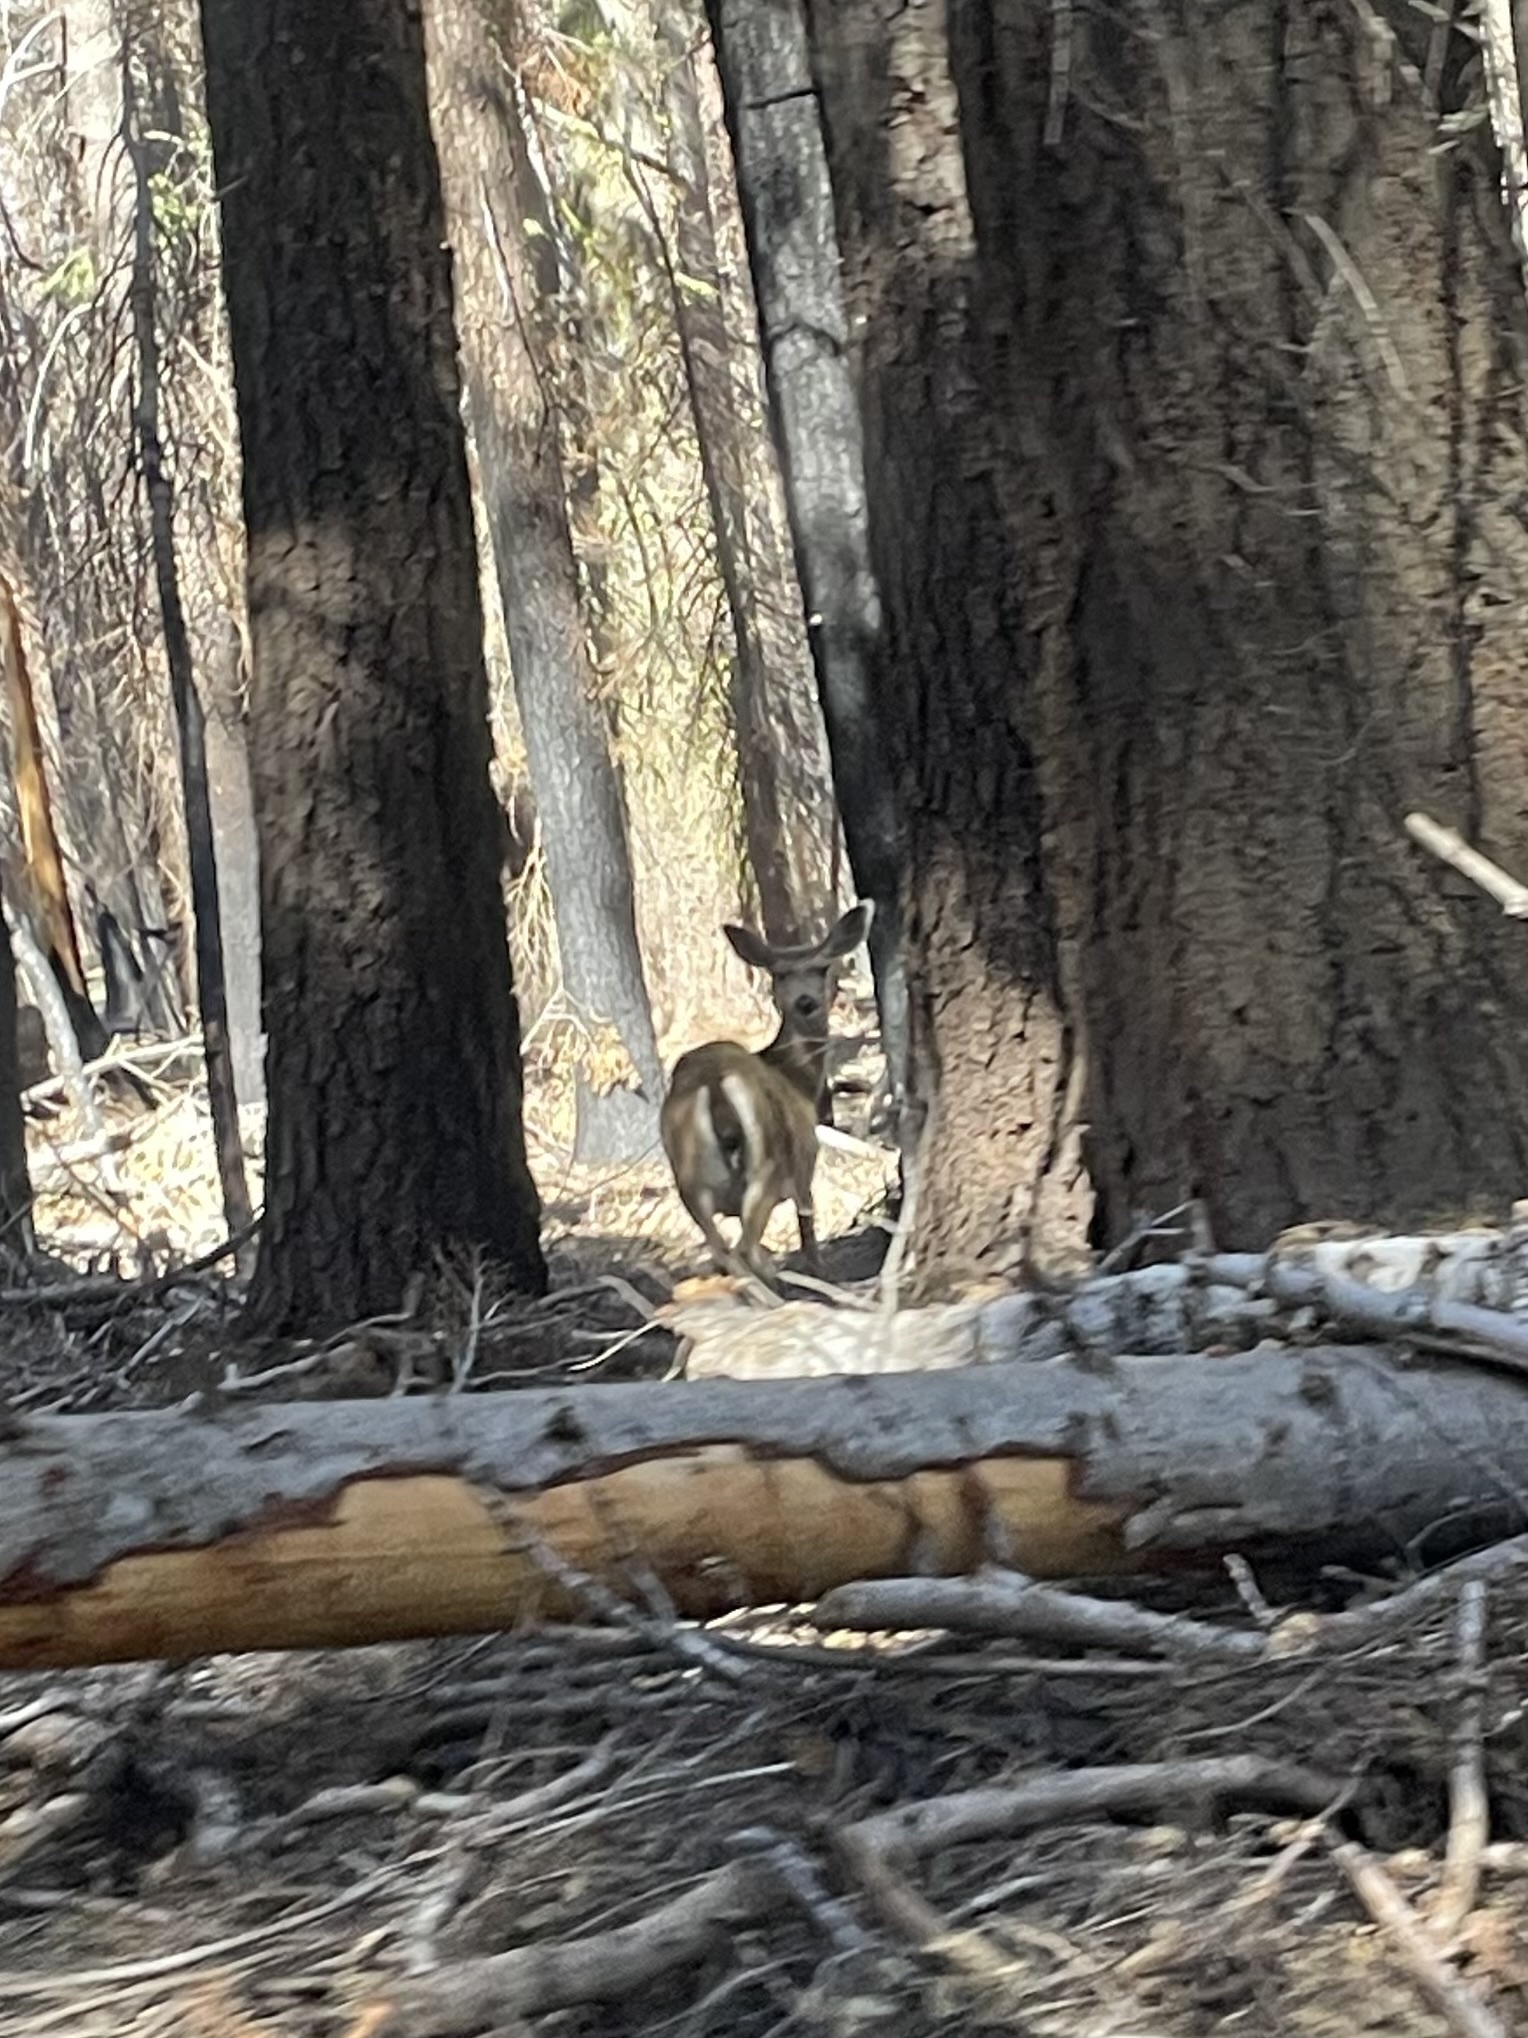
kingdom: Animalia
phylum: Chordata
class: Mammalia
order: Artiodactyla
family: Cervidae
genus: Odocoileus
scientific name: Odocoileus hemionus
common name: Mule deer
